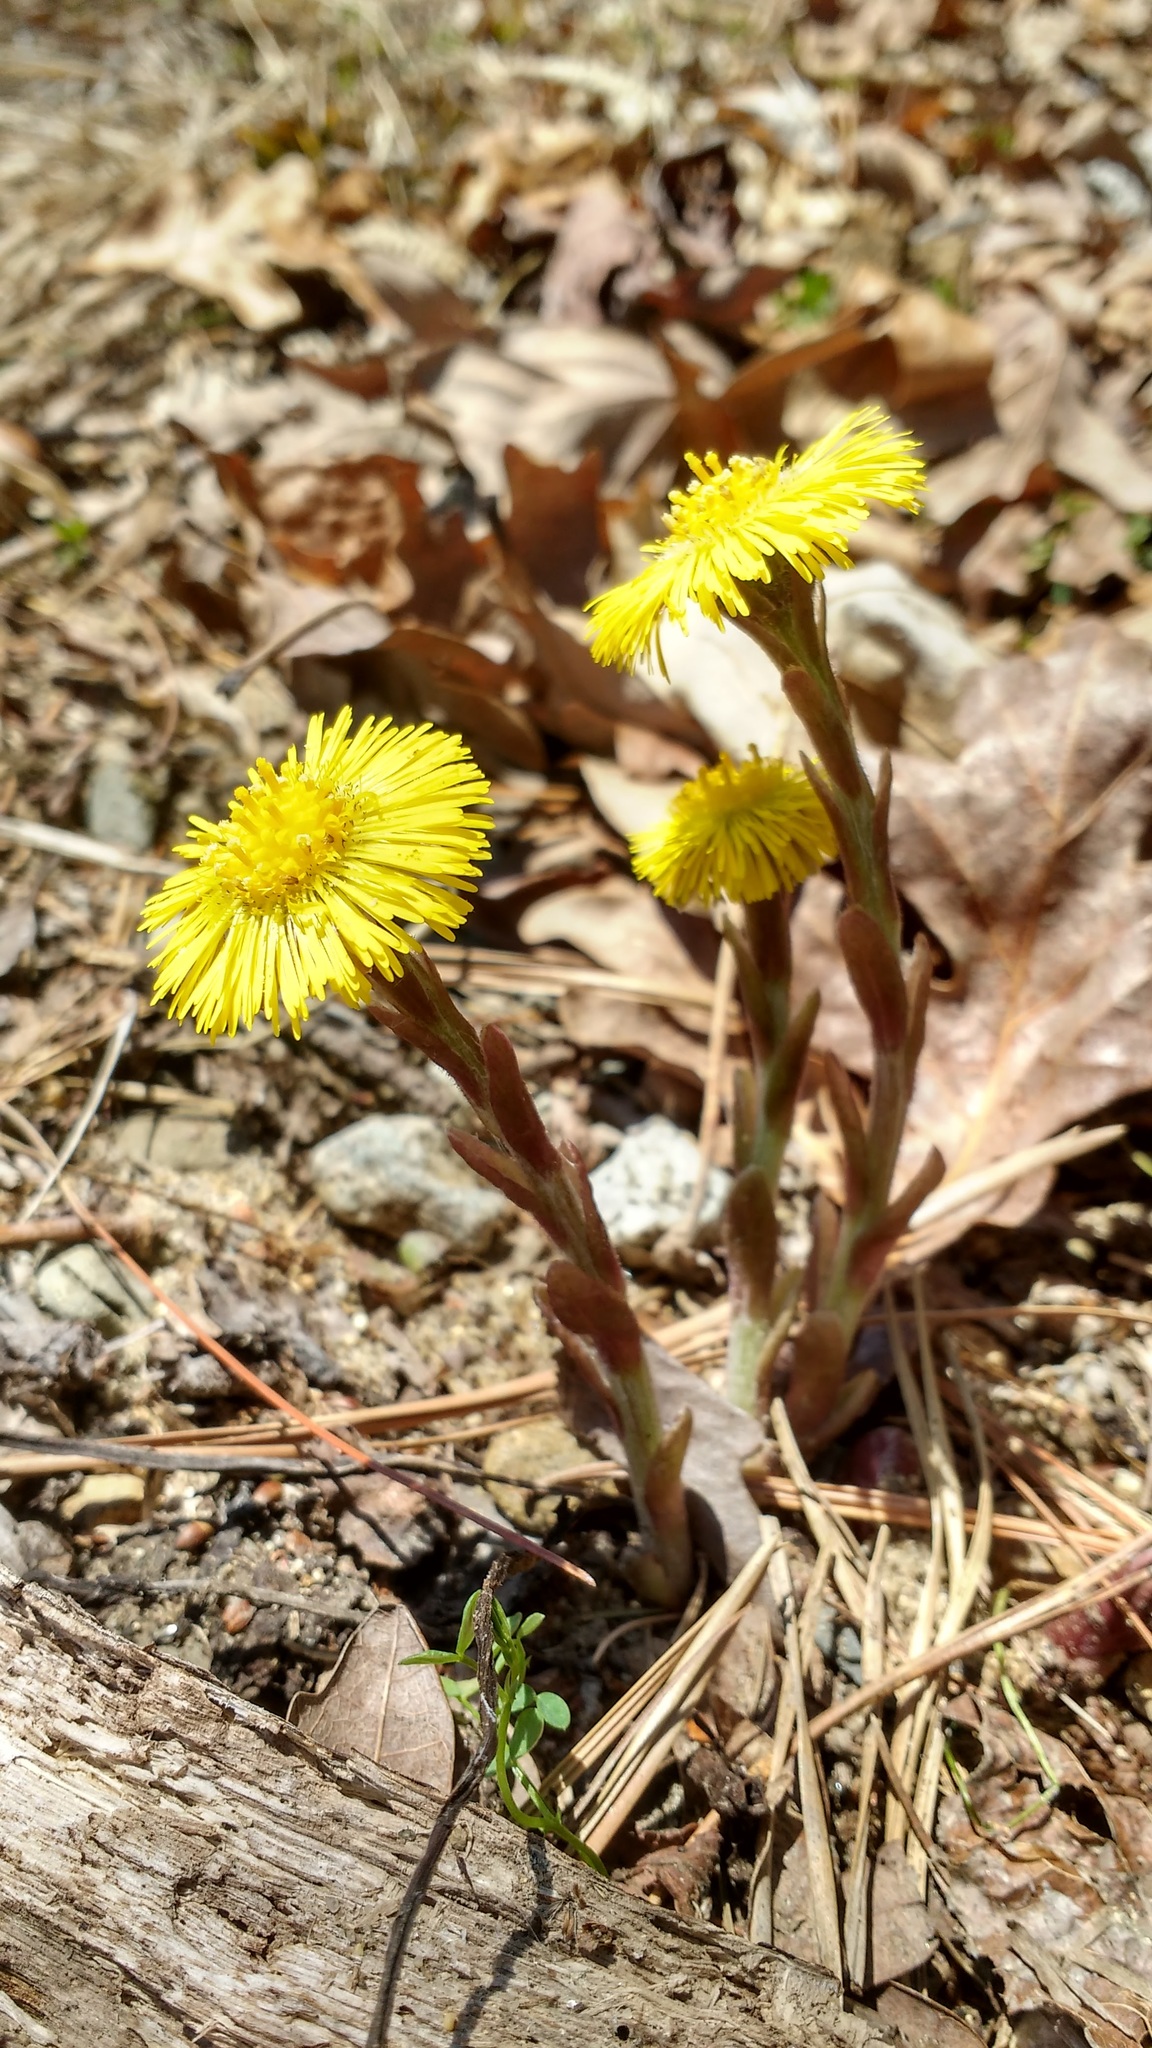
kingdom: Plantae
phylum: Tracheophyta
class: Magnoliopsida
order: Asterales
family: Asteraceae
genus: Tussilago
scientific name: Tussilago farfara
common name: Coltsfoot
